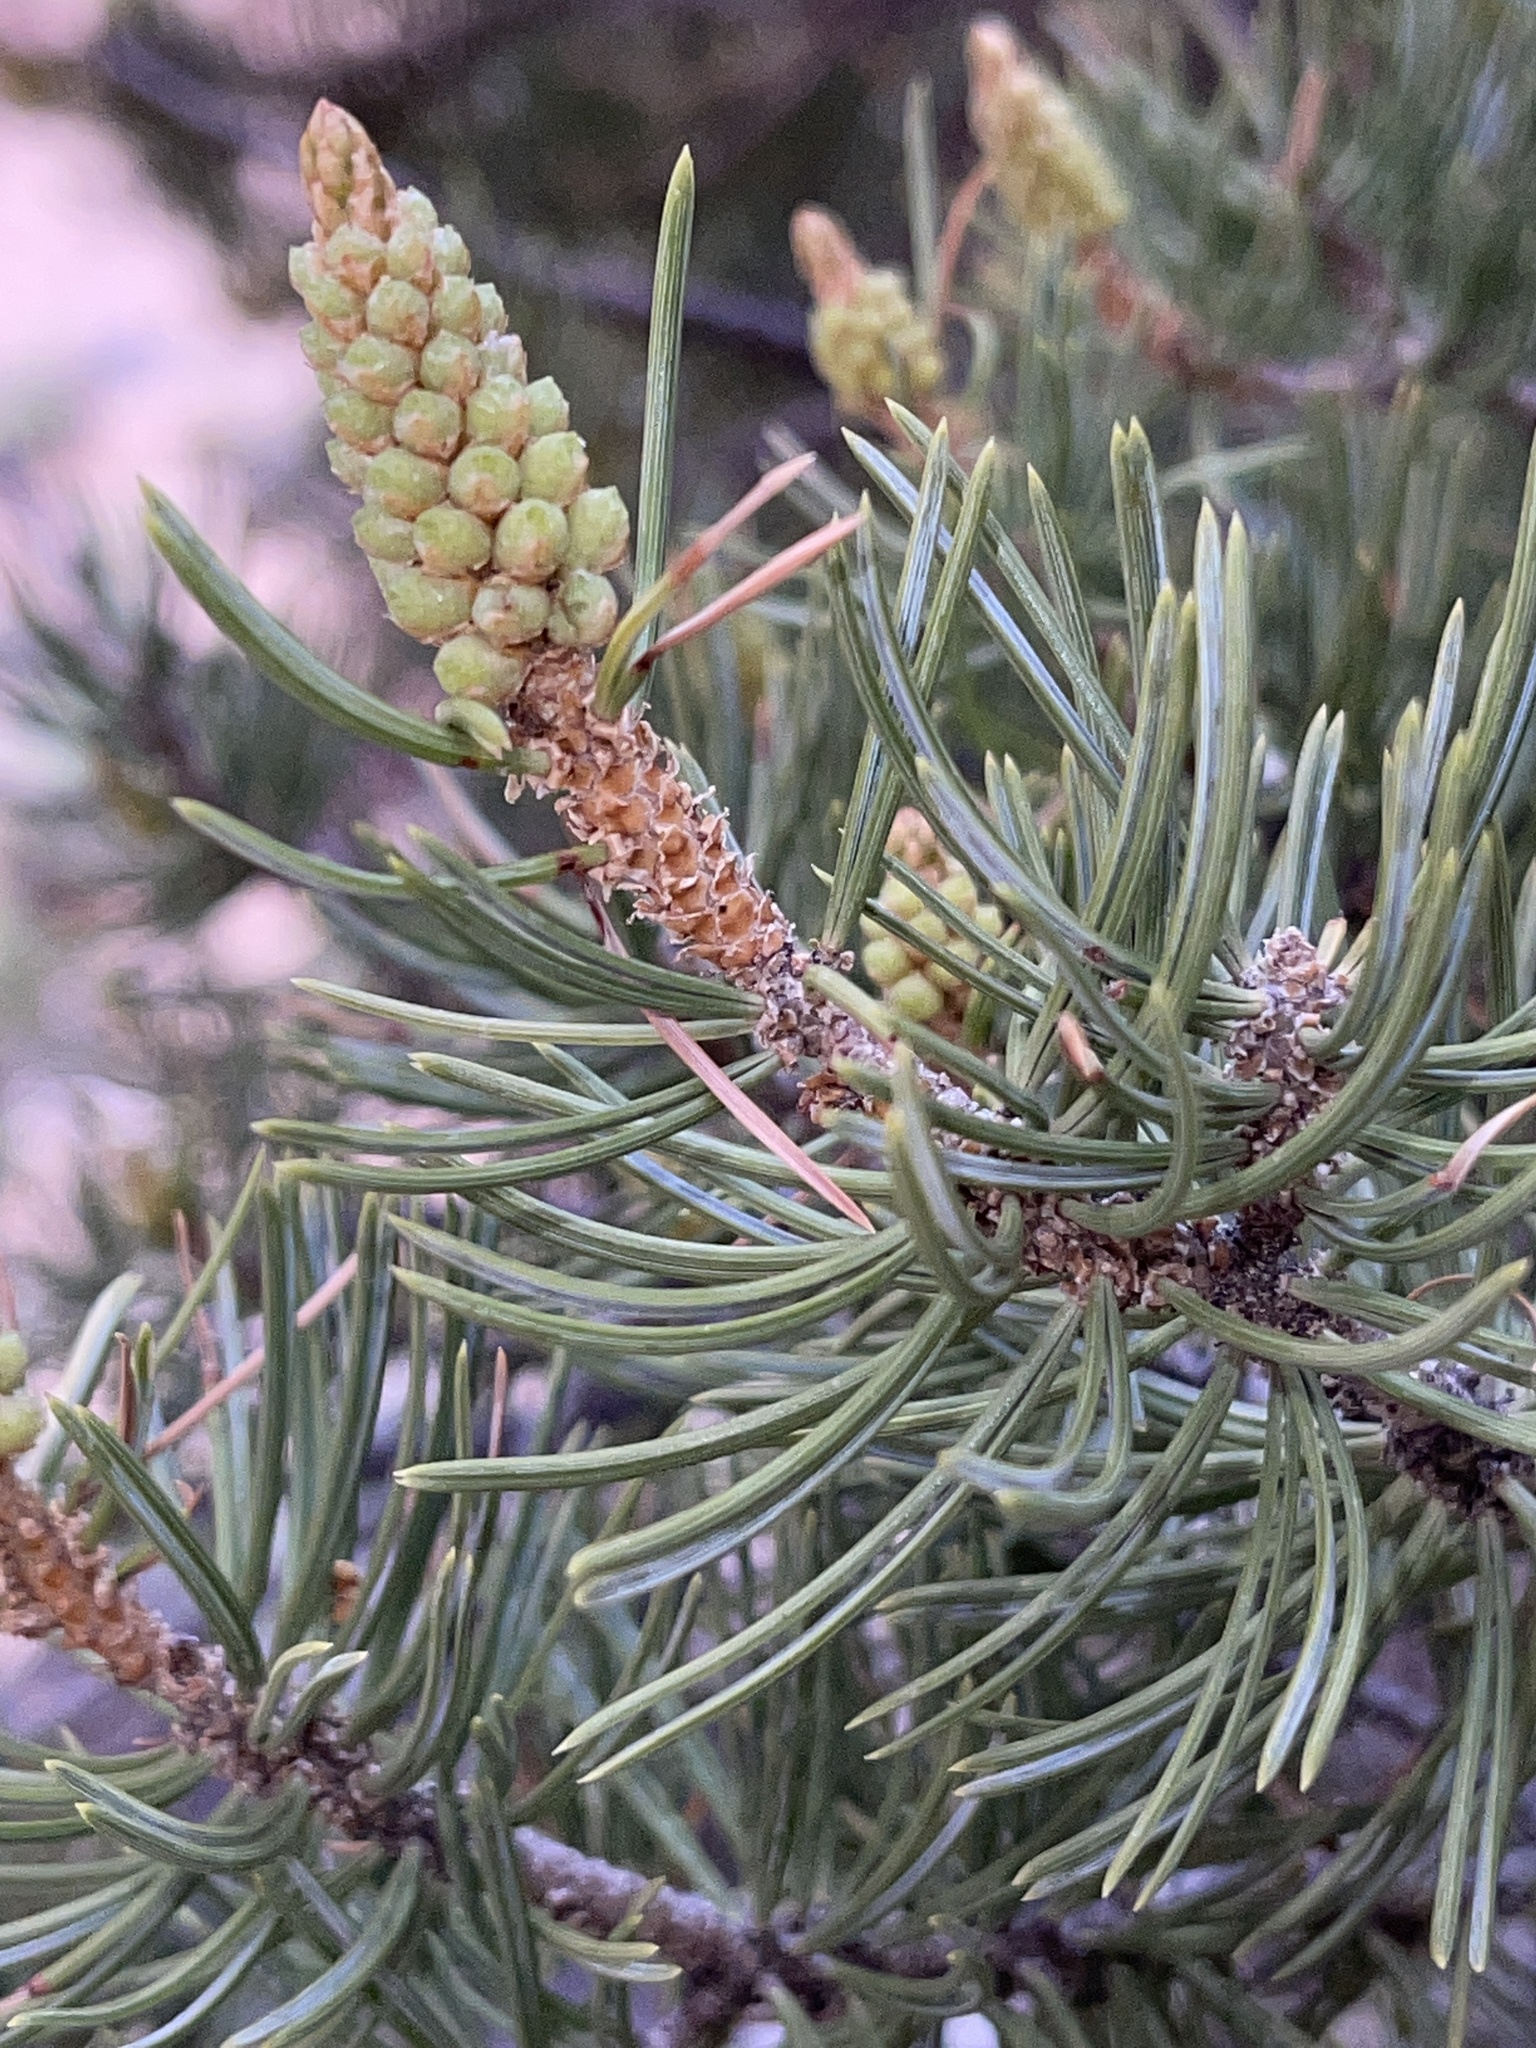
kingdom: Plantae
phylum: Tracheophyta
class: Pinopsida
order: Pinales
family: Pinaceae
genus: Pinus
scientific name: Pinus edulis
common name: Colorado pinyon
